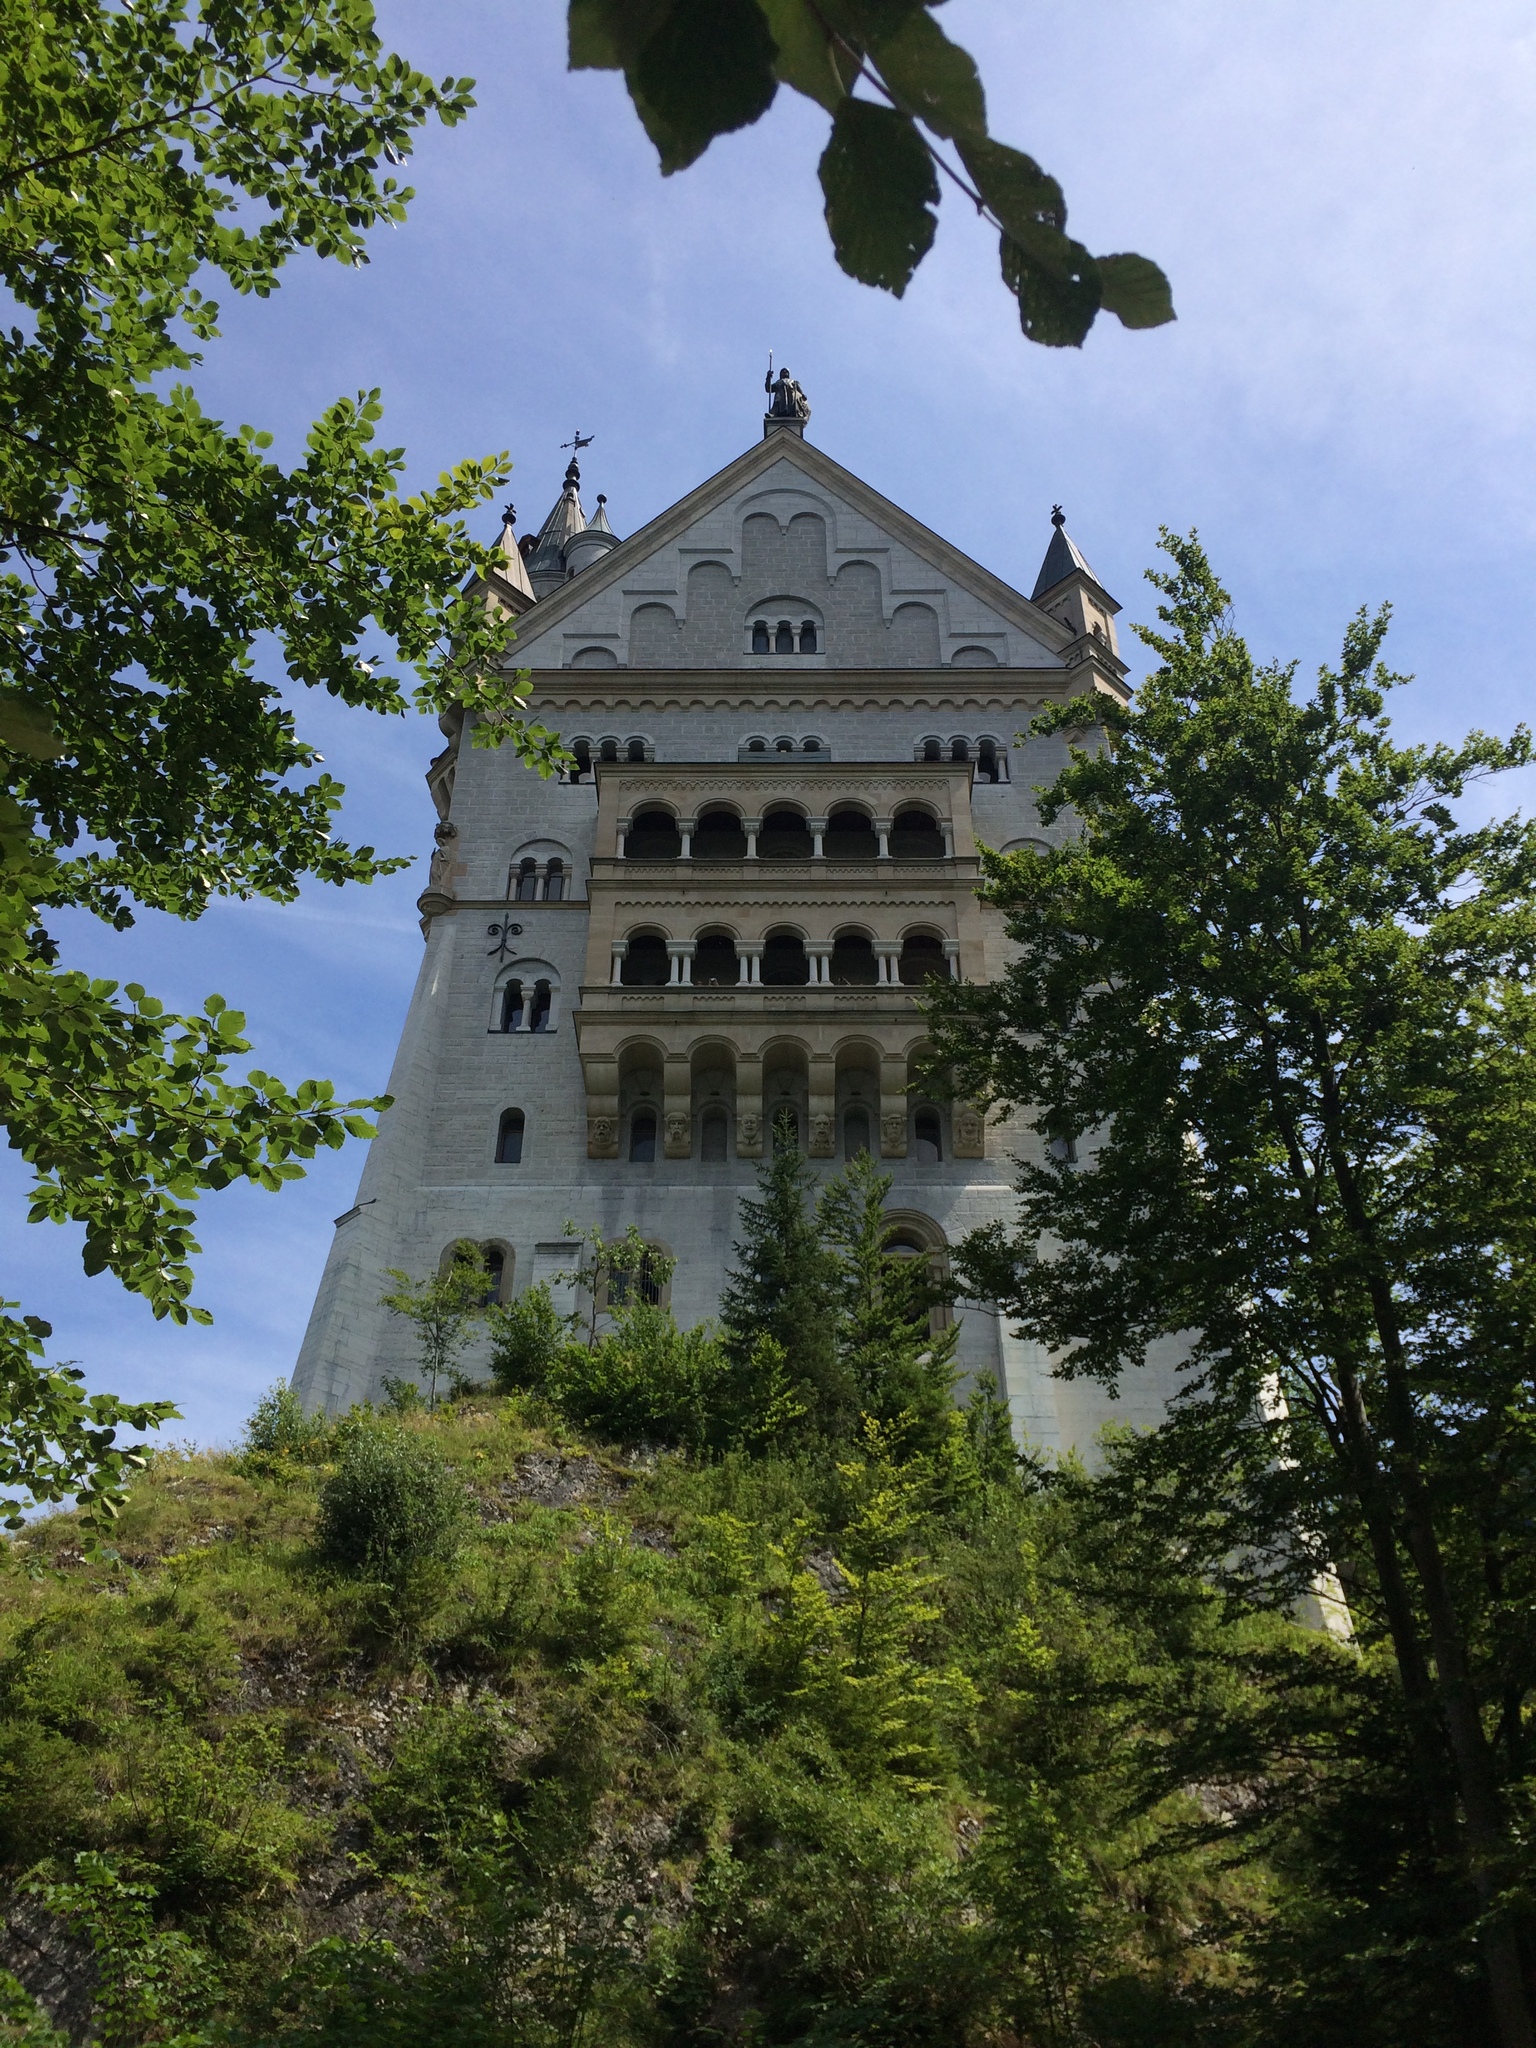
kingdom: Plantae
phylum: Tracheophyta
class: Magnoliopsida
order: Fagales
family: Fagaceae
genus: Fagus
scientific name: Fagus sylvatica
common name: Beech
